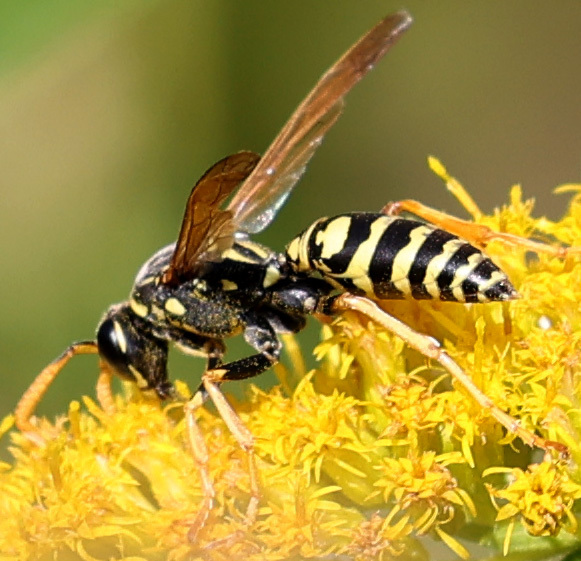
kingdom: Animalia
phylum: Arthropoda
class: Insecta
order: Hymenoptera
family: Eumenidae
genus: Polistes
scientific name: Polistes dominula
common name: Paper wasp
